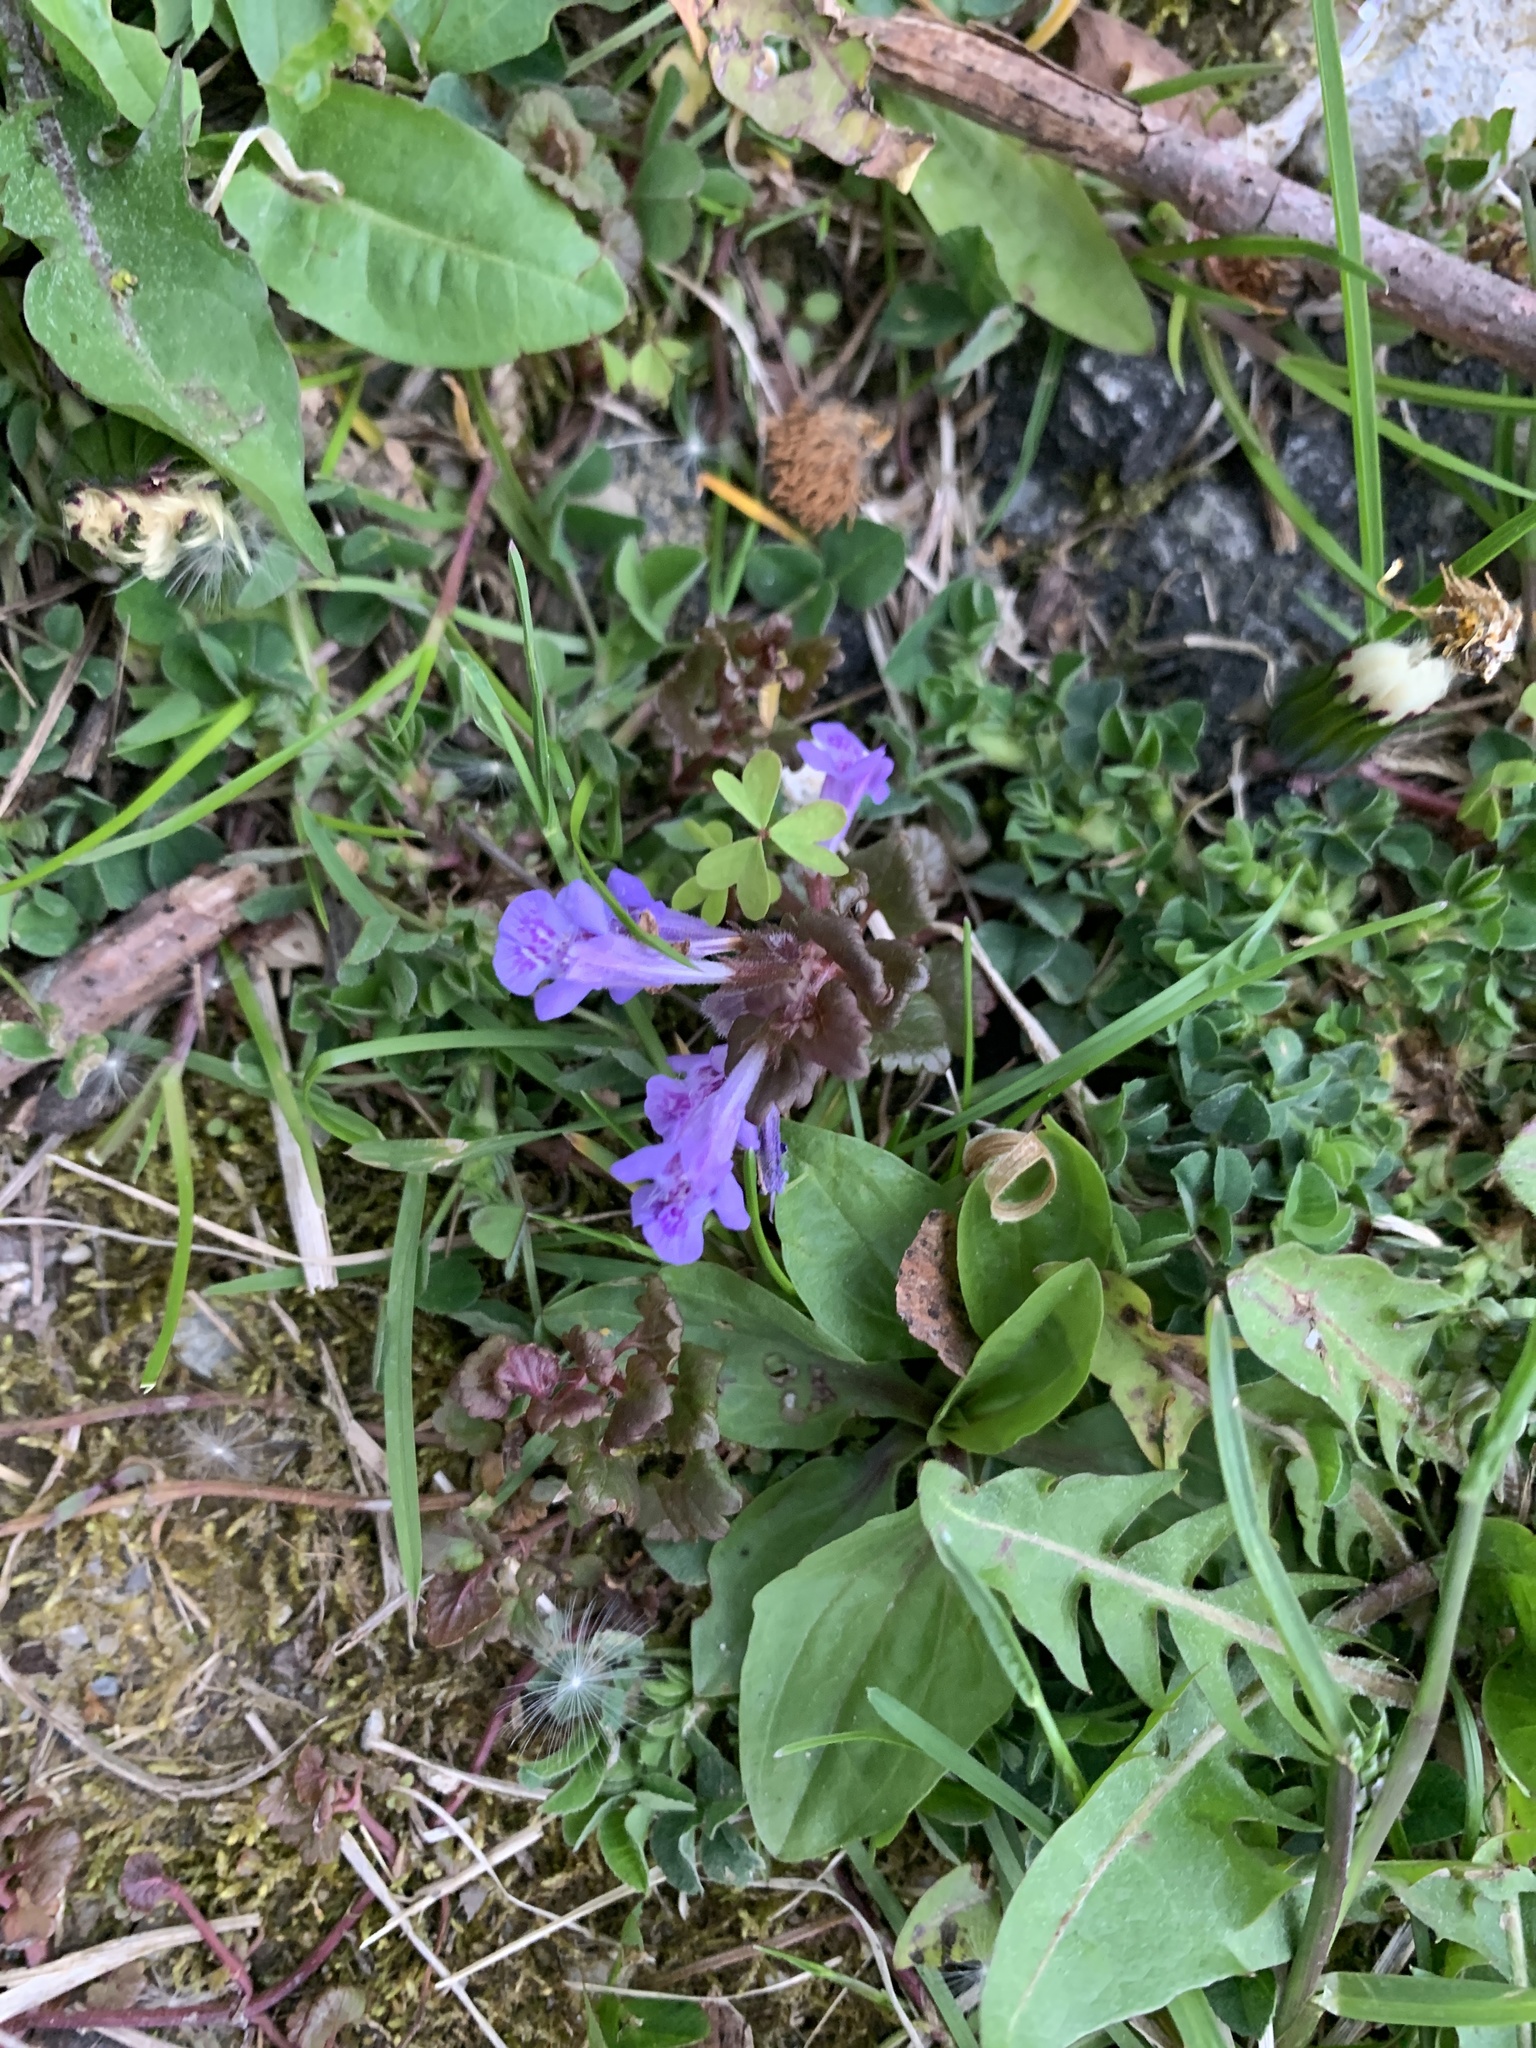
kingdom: Plantae
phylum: Tracheophyta
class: Magnoliopsida
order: Lamiales
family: Lamiaceae
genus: Glechoma
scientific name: Glechoma hederacea
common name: Ground ivy
